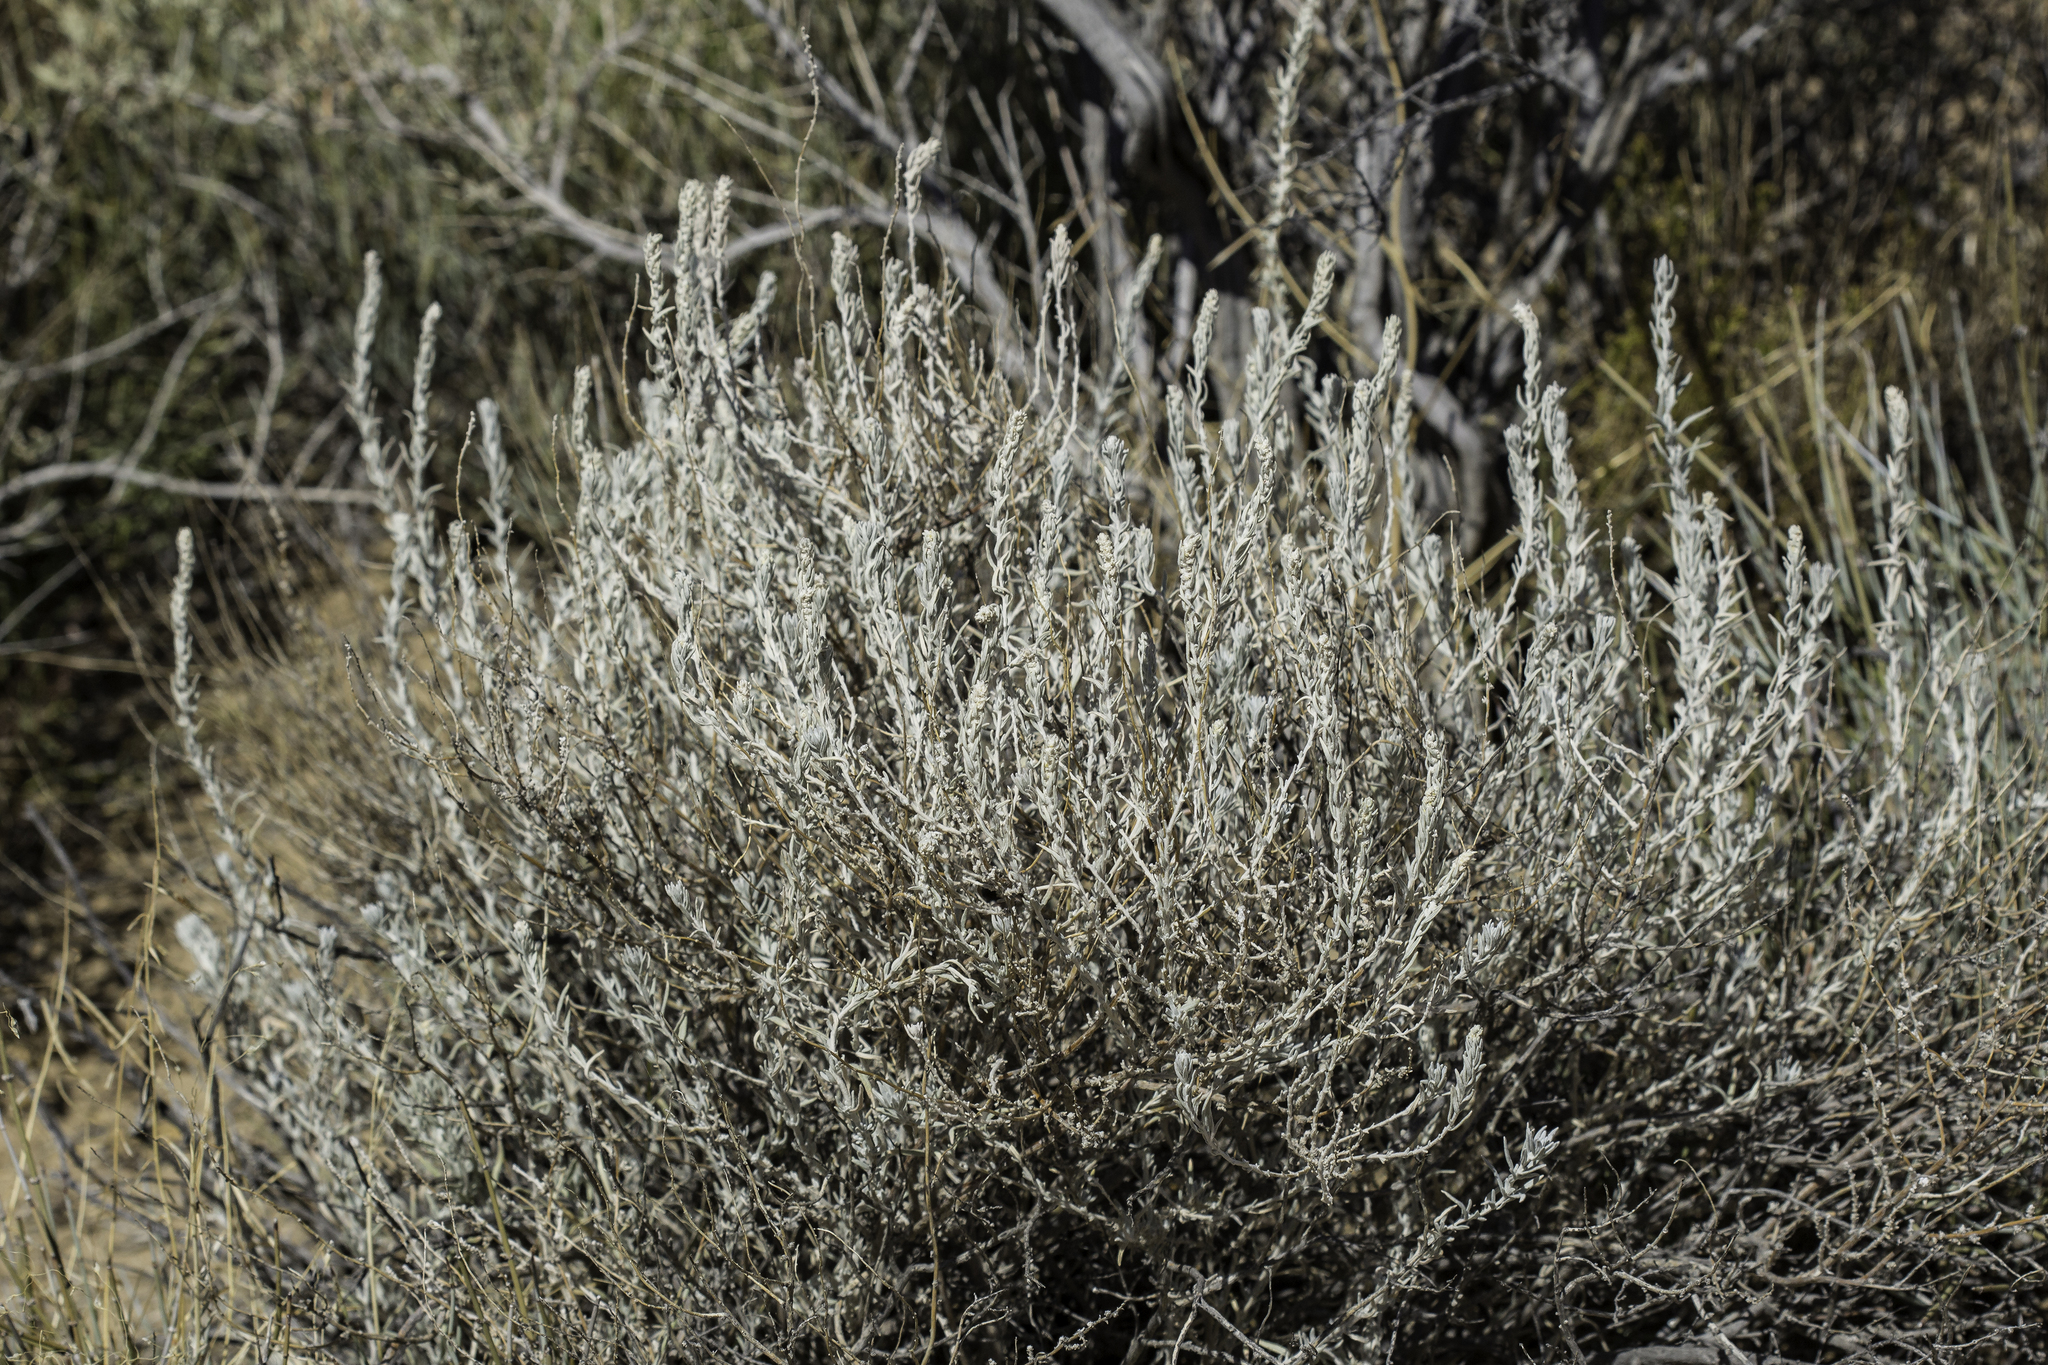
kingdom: Plantae
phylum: Tracheophyta
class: Magnoliopsida
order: Caryophyllales
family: Amaranthaceae
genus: Krascheninnikovia
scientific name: Krascheninnikovia lanata
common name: Winterfat
